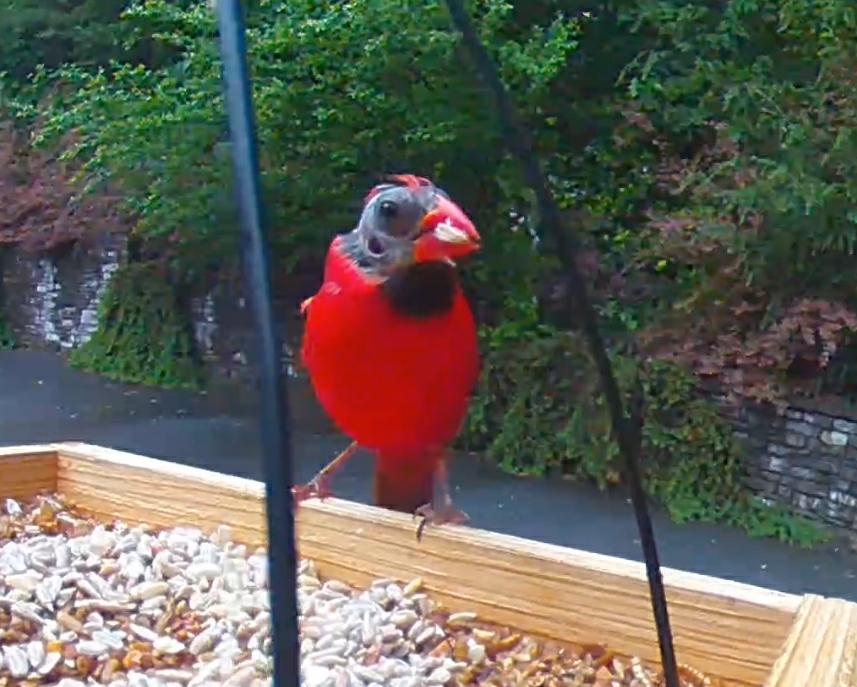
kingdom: Animalia
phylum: Chordata
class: Aves
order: Passeriformes
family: Cardinalidae
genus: Cardinalis
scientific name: Cardinalis cardinalis
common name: Northern cardinal
